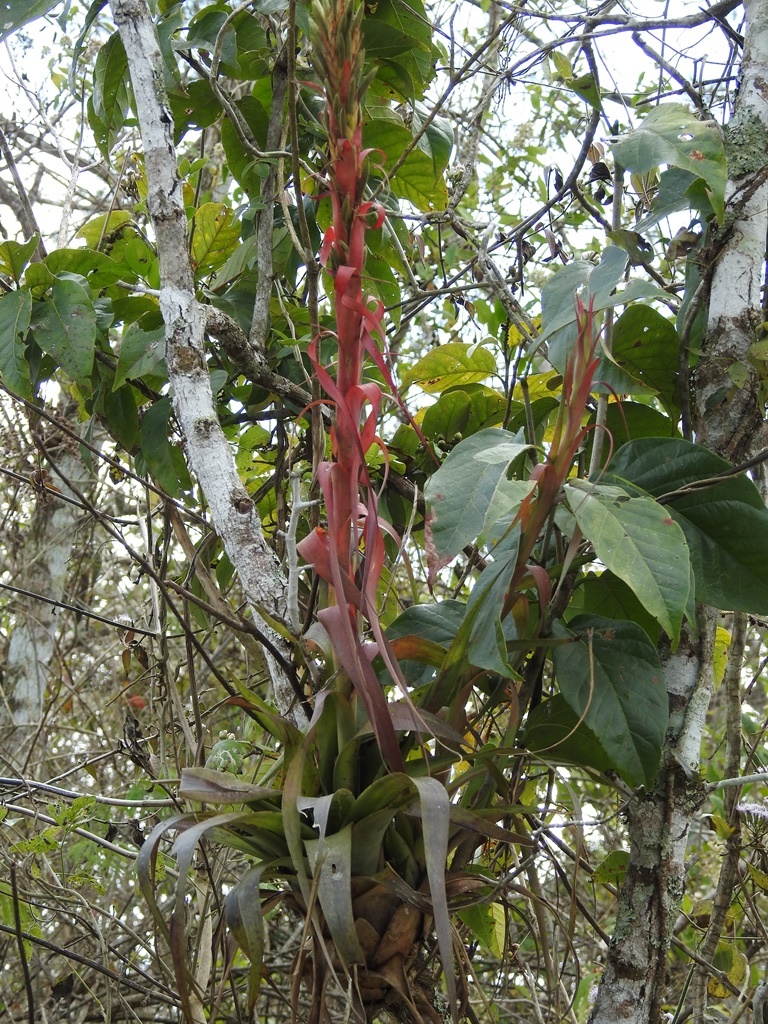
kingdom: Plantae
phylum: Tracheophyta
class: Liliopsida
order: Poales
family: Bromeliaceae
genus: Tillandsia
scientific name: Tillandsia belloensis
